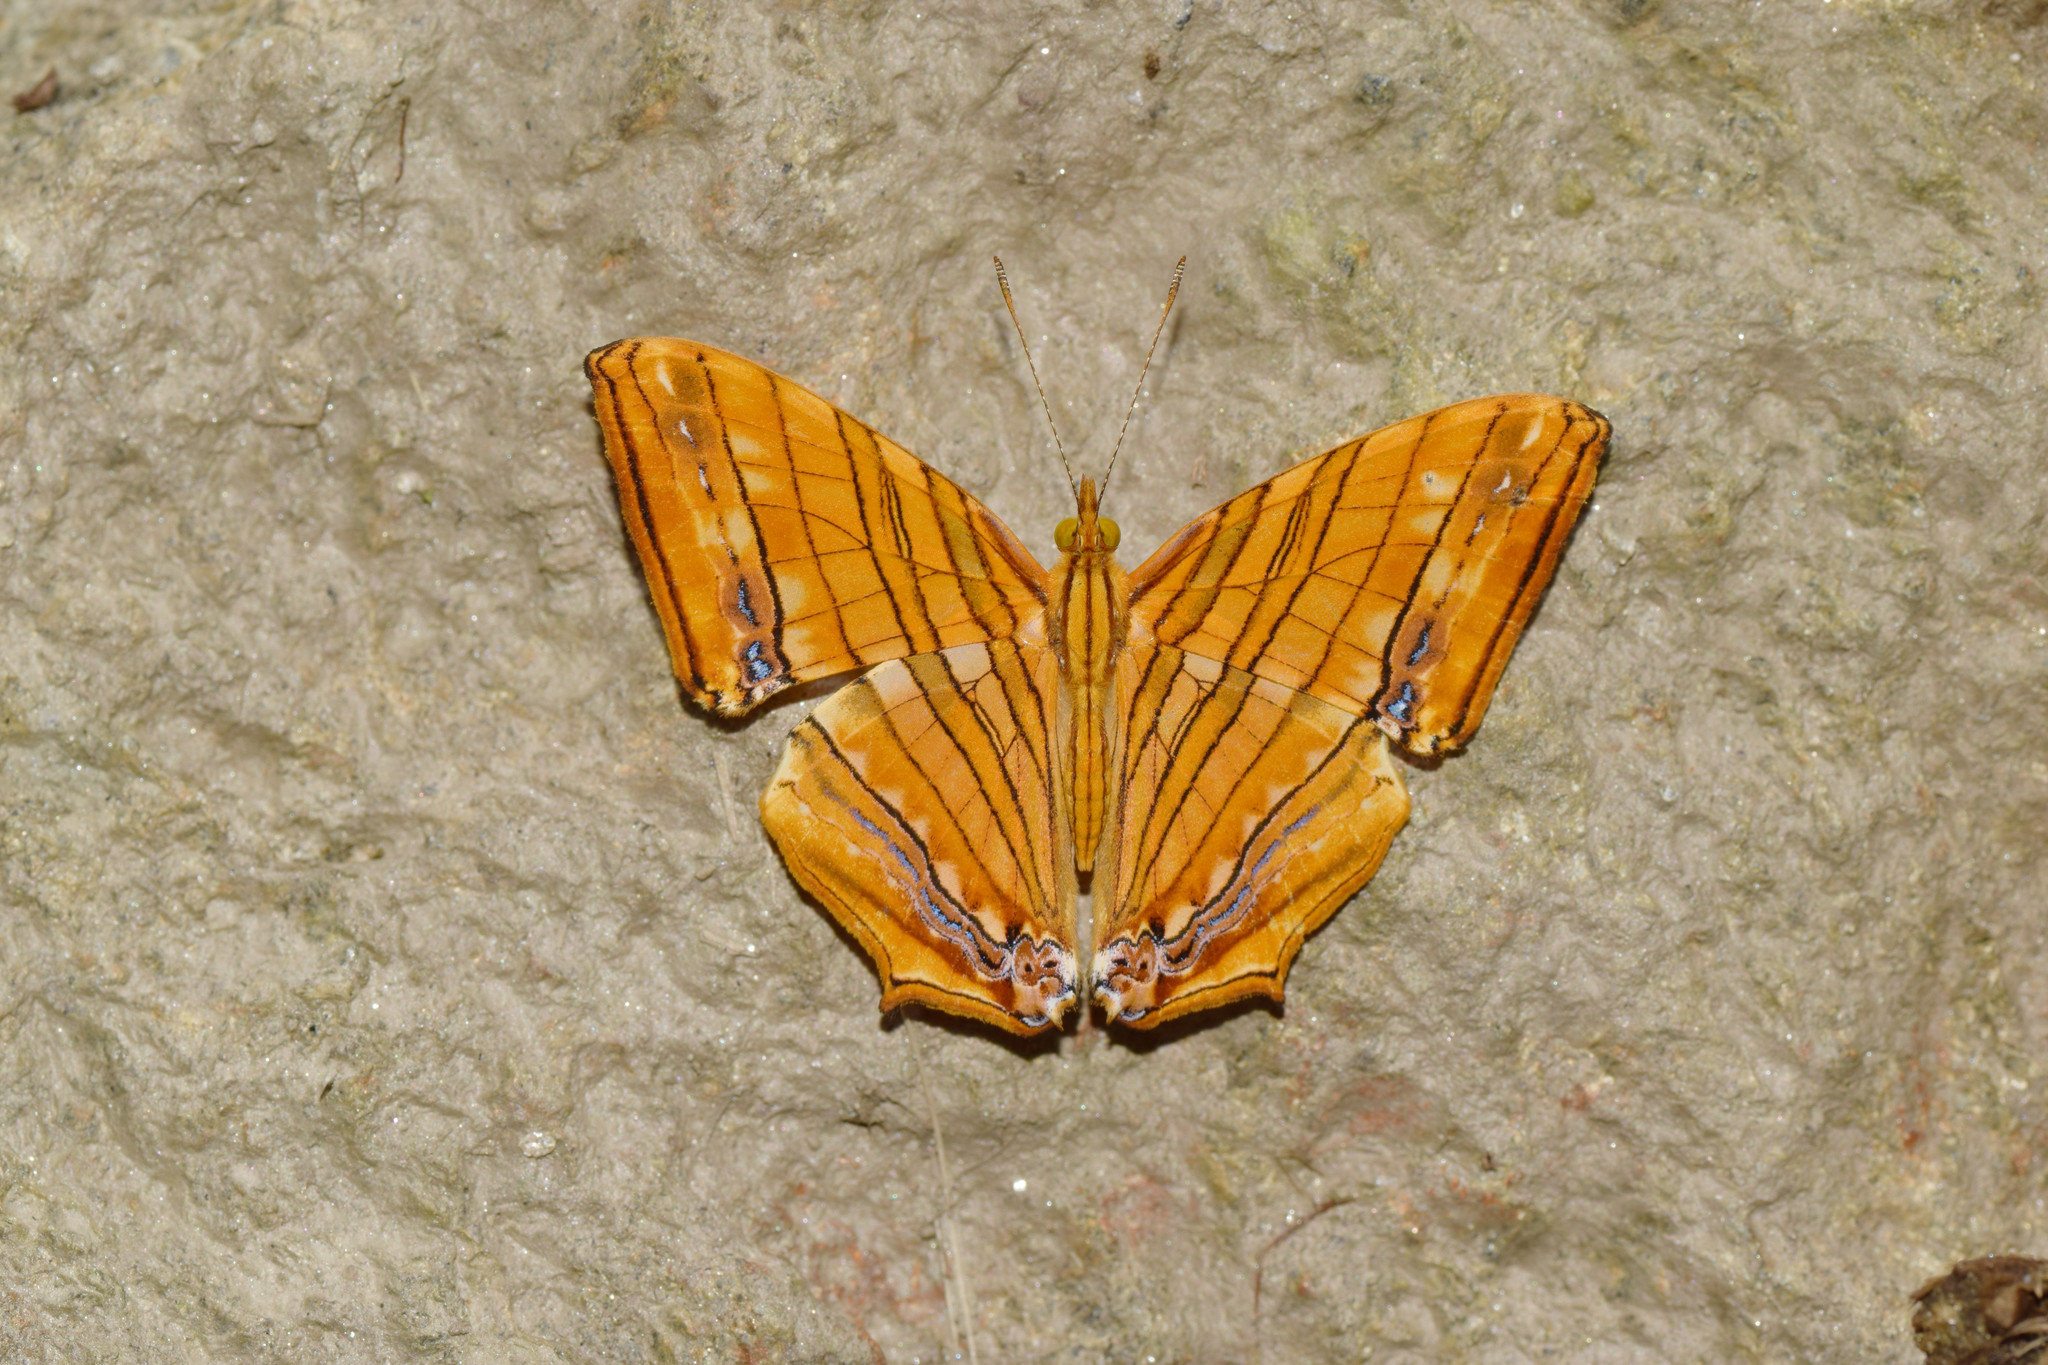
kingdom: Animalia
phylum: Arthropoda
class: Insecta
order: Lepidoptera
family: Nymphalidae
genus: Chersonesia
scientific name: Chersonesia risa
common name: Common maplet
